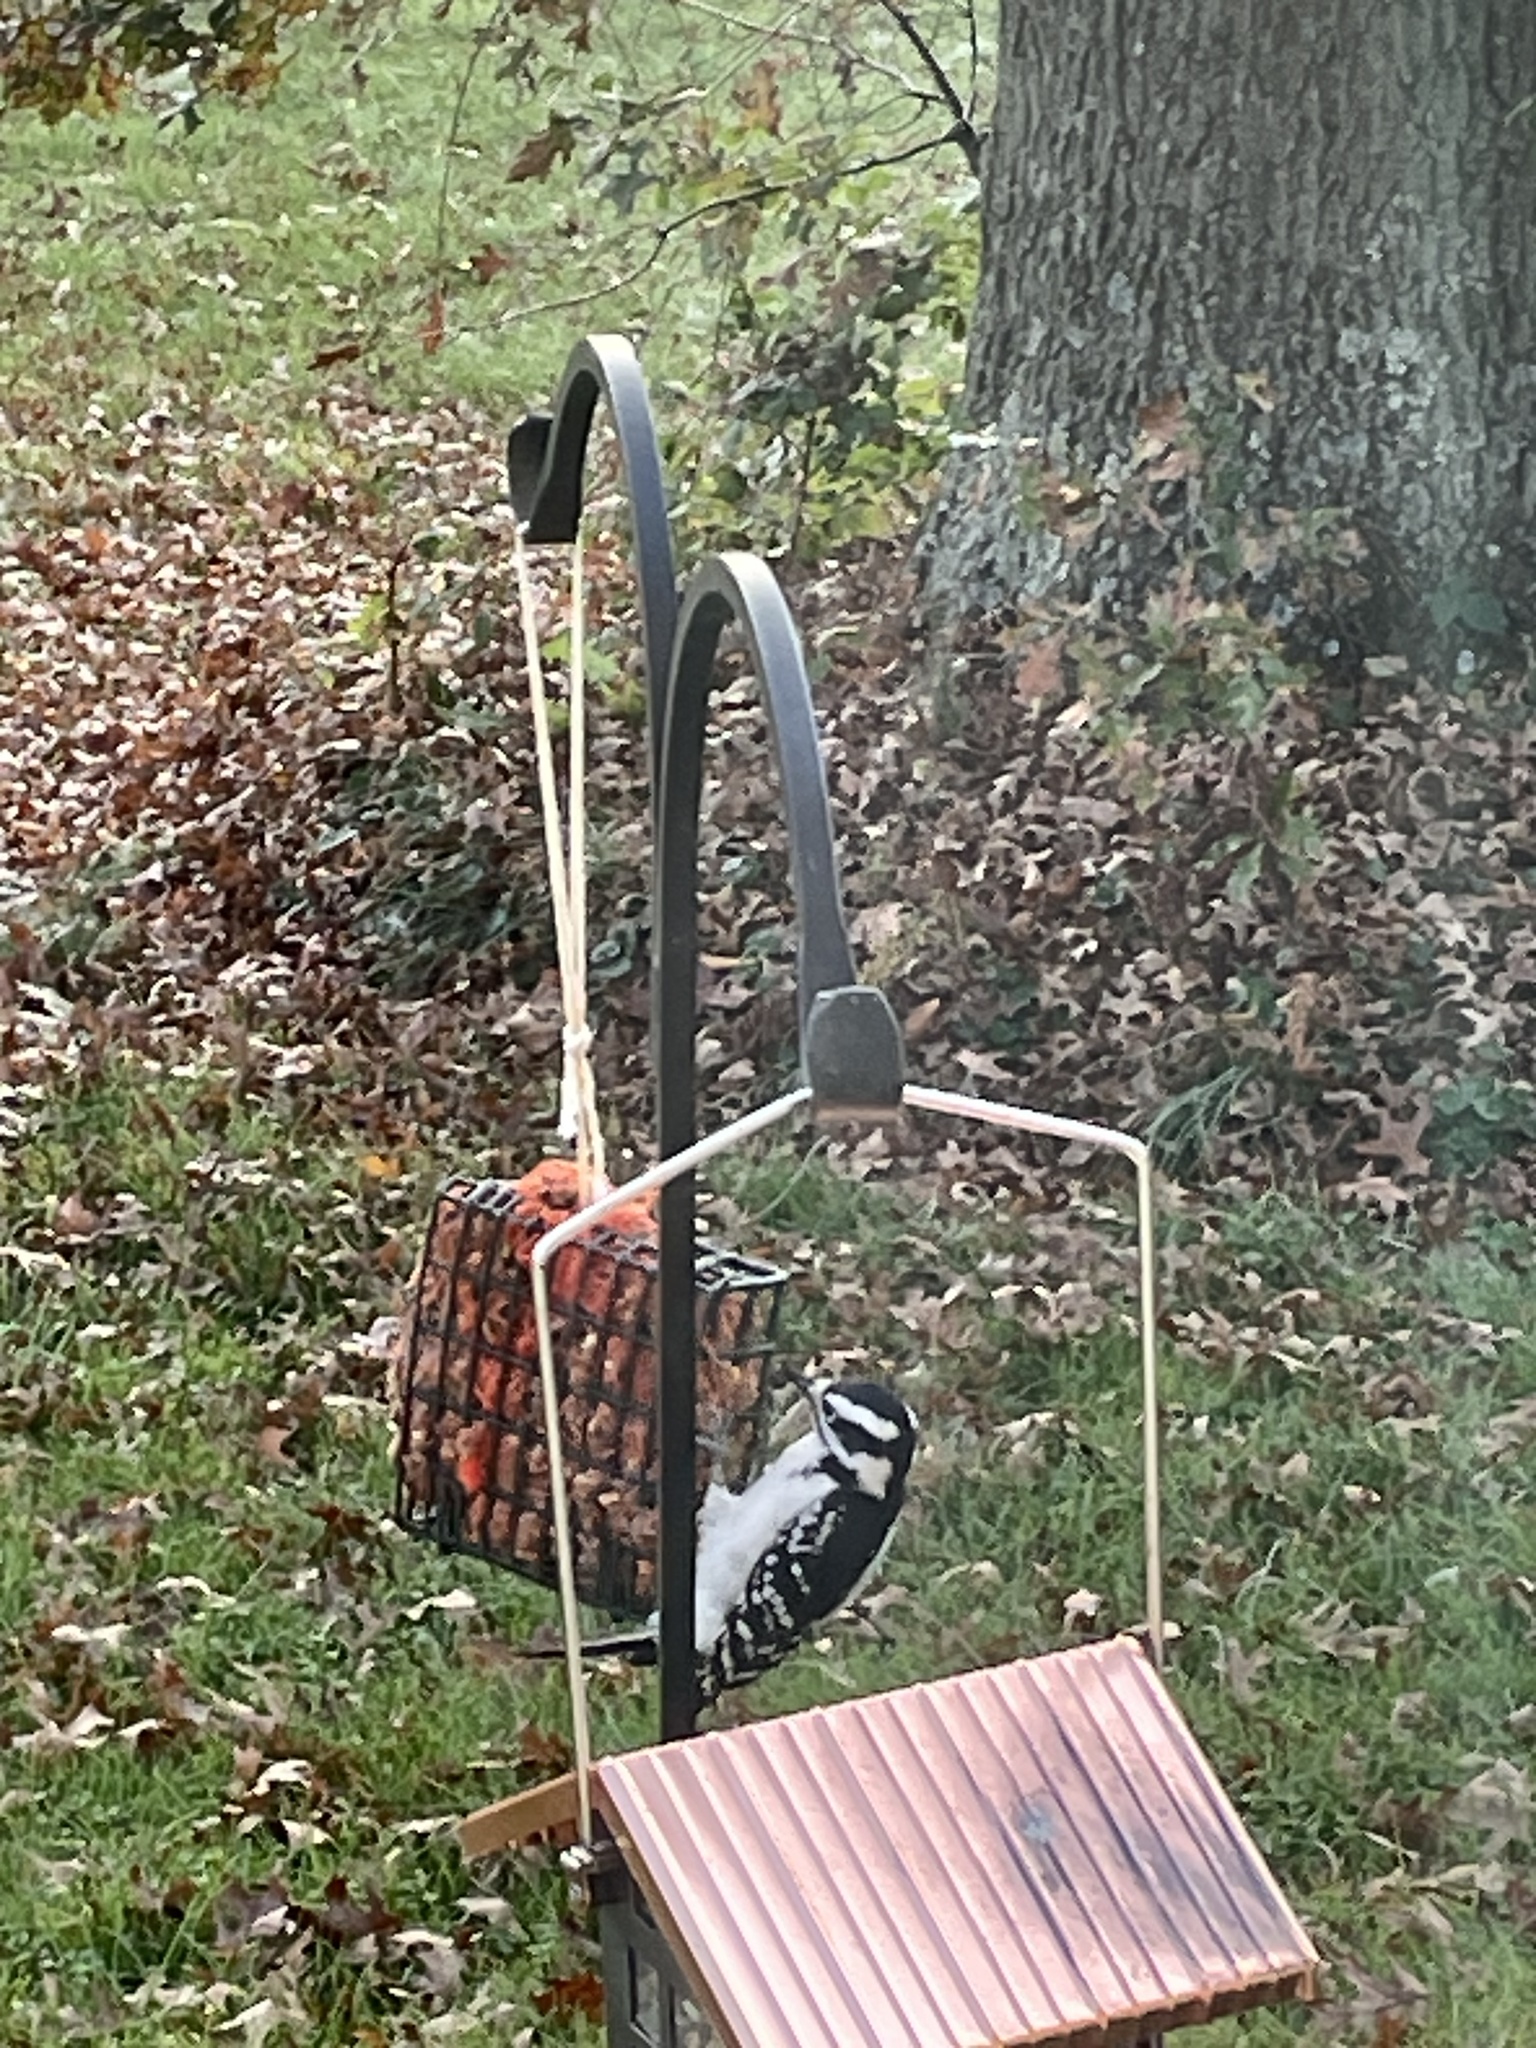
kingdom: Animalia
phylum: Chordata
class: Aves
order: Piciformes
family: Picidae
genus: Leuconotopicus
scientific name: Leuconotopicus villosus
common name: Hairy woodpecker
